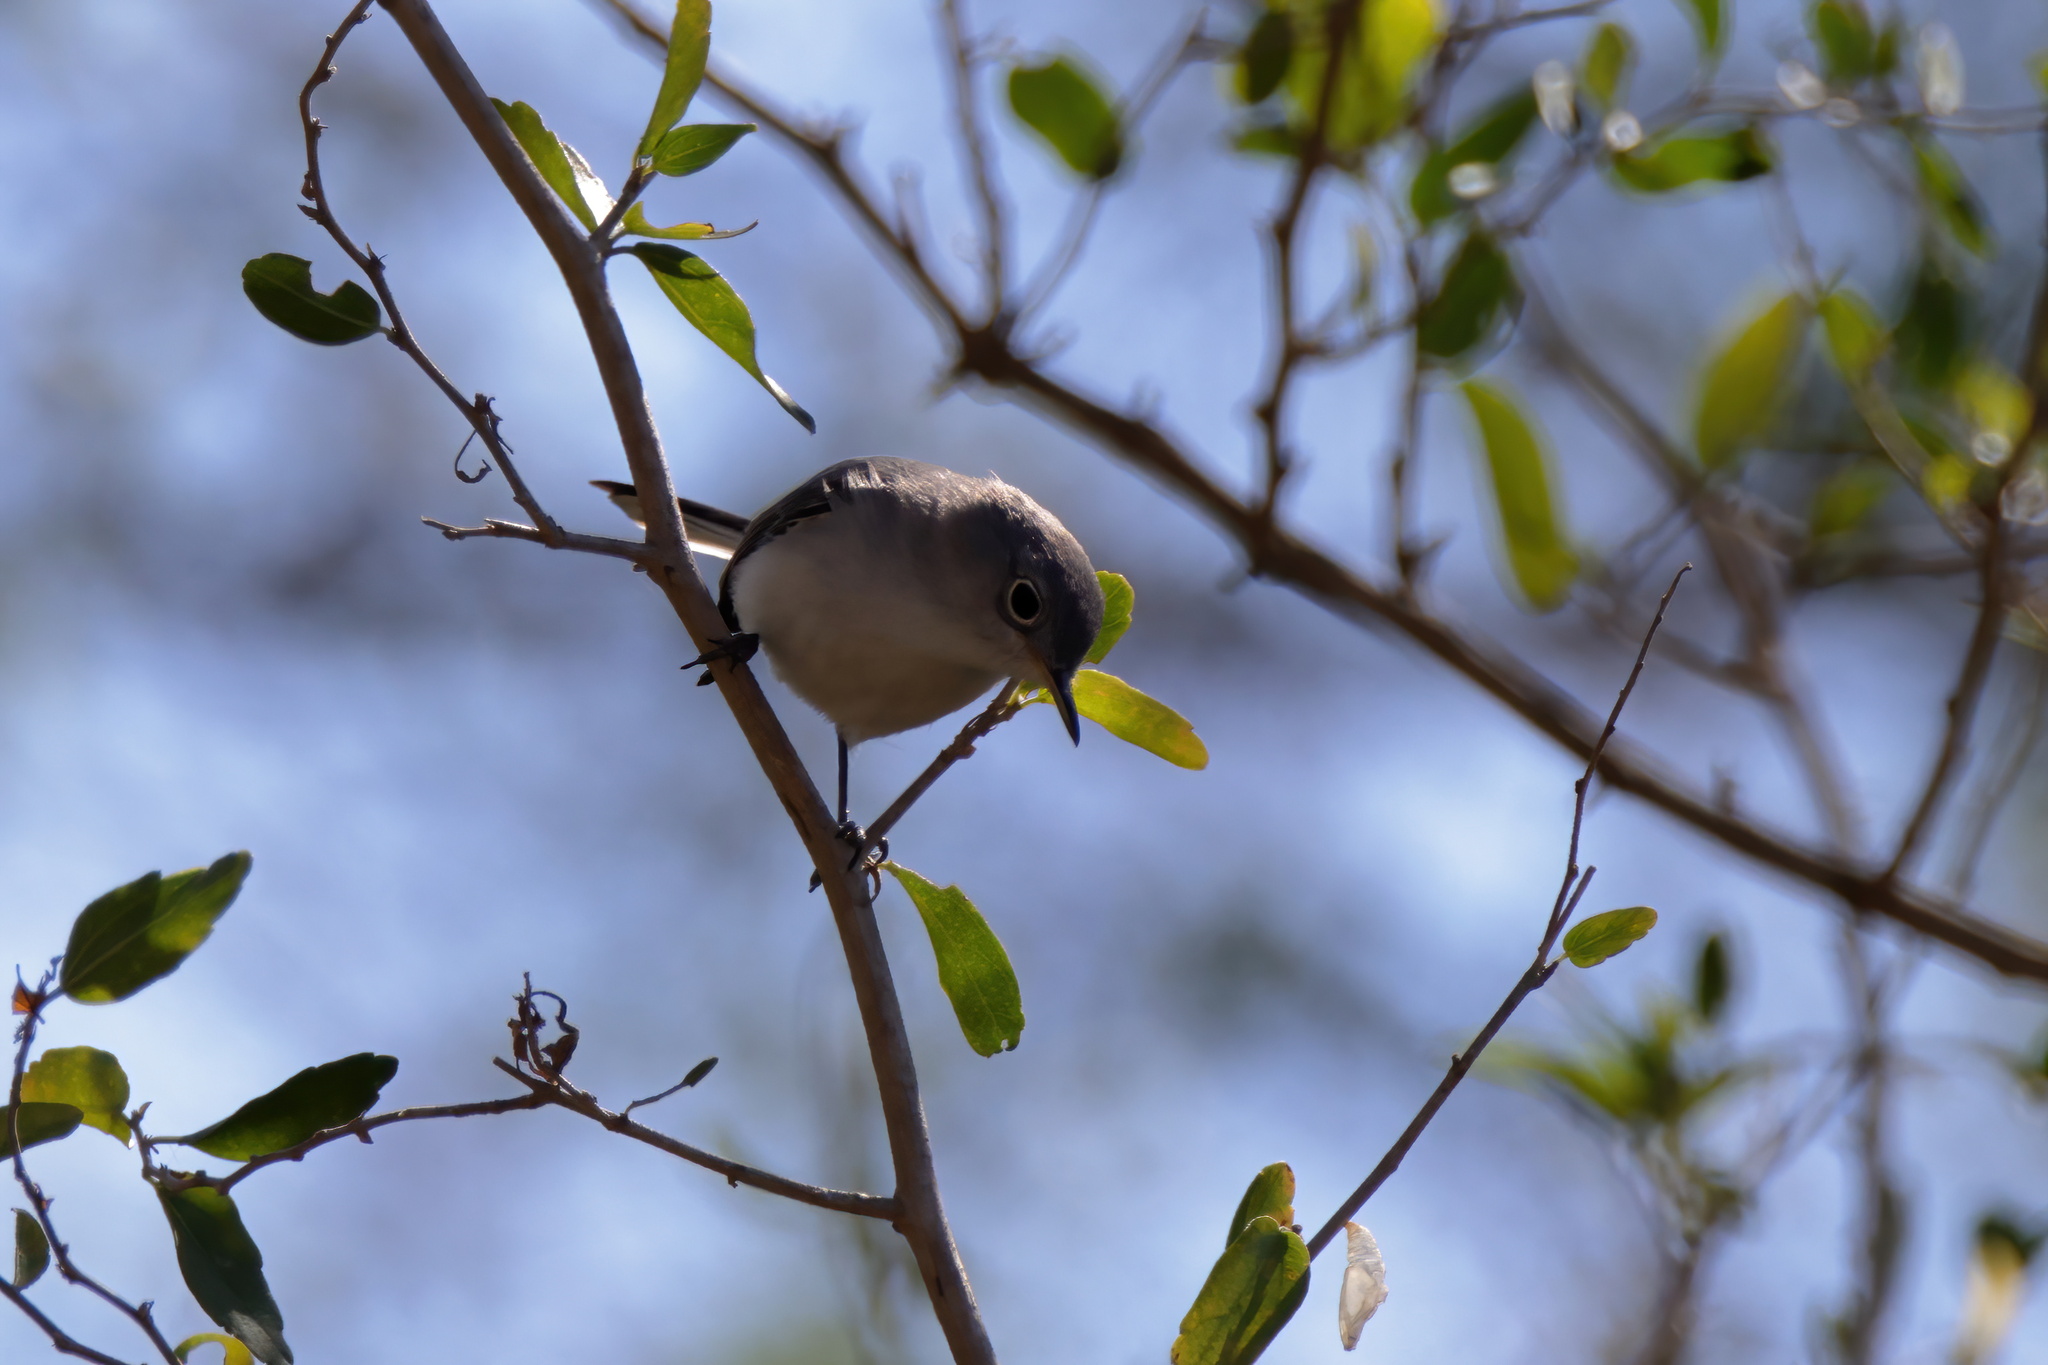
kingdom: Animalia
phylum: Chordata
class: Aves
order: Passeriformes
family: Polioptilidae
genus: Polioptila
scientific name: Polioptila caerulea
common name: Blue-gray gnatcatcher
